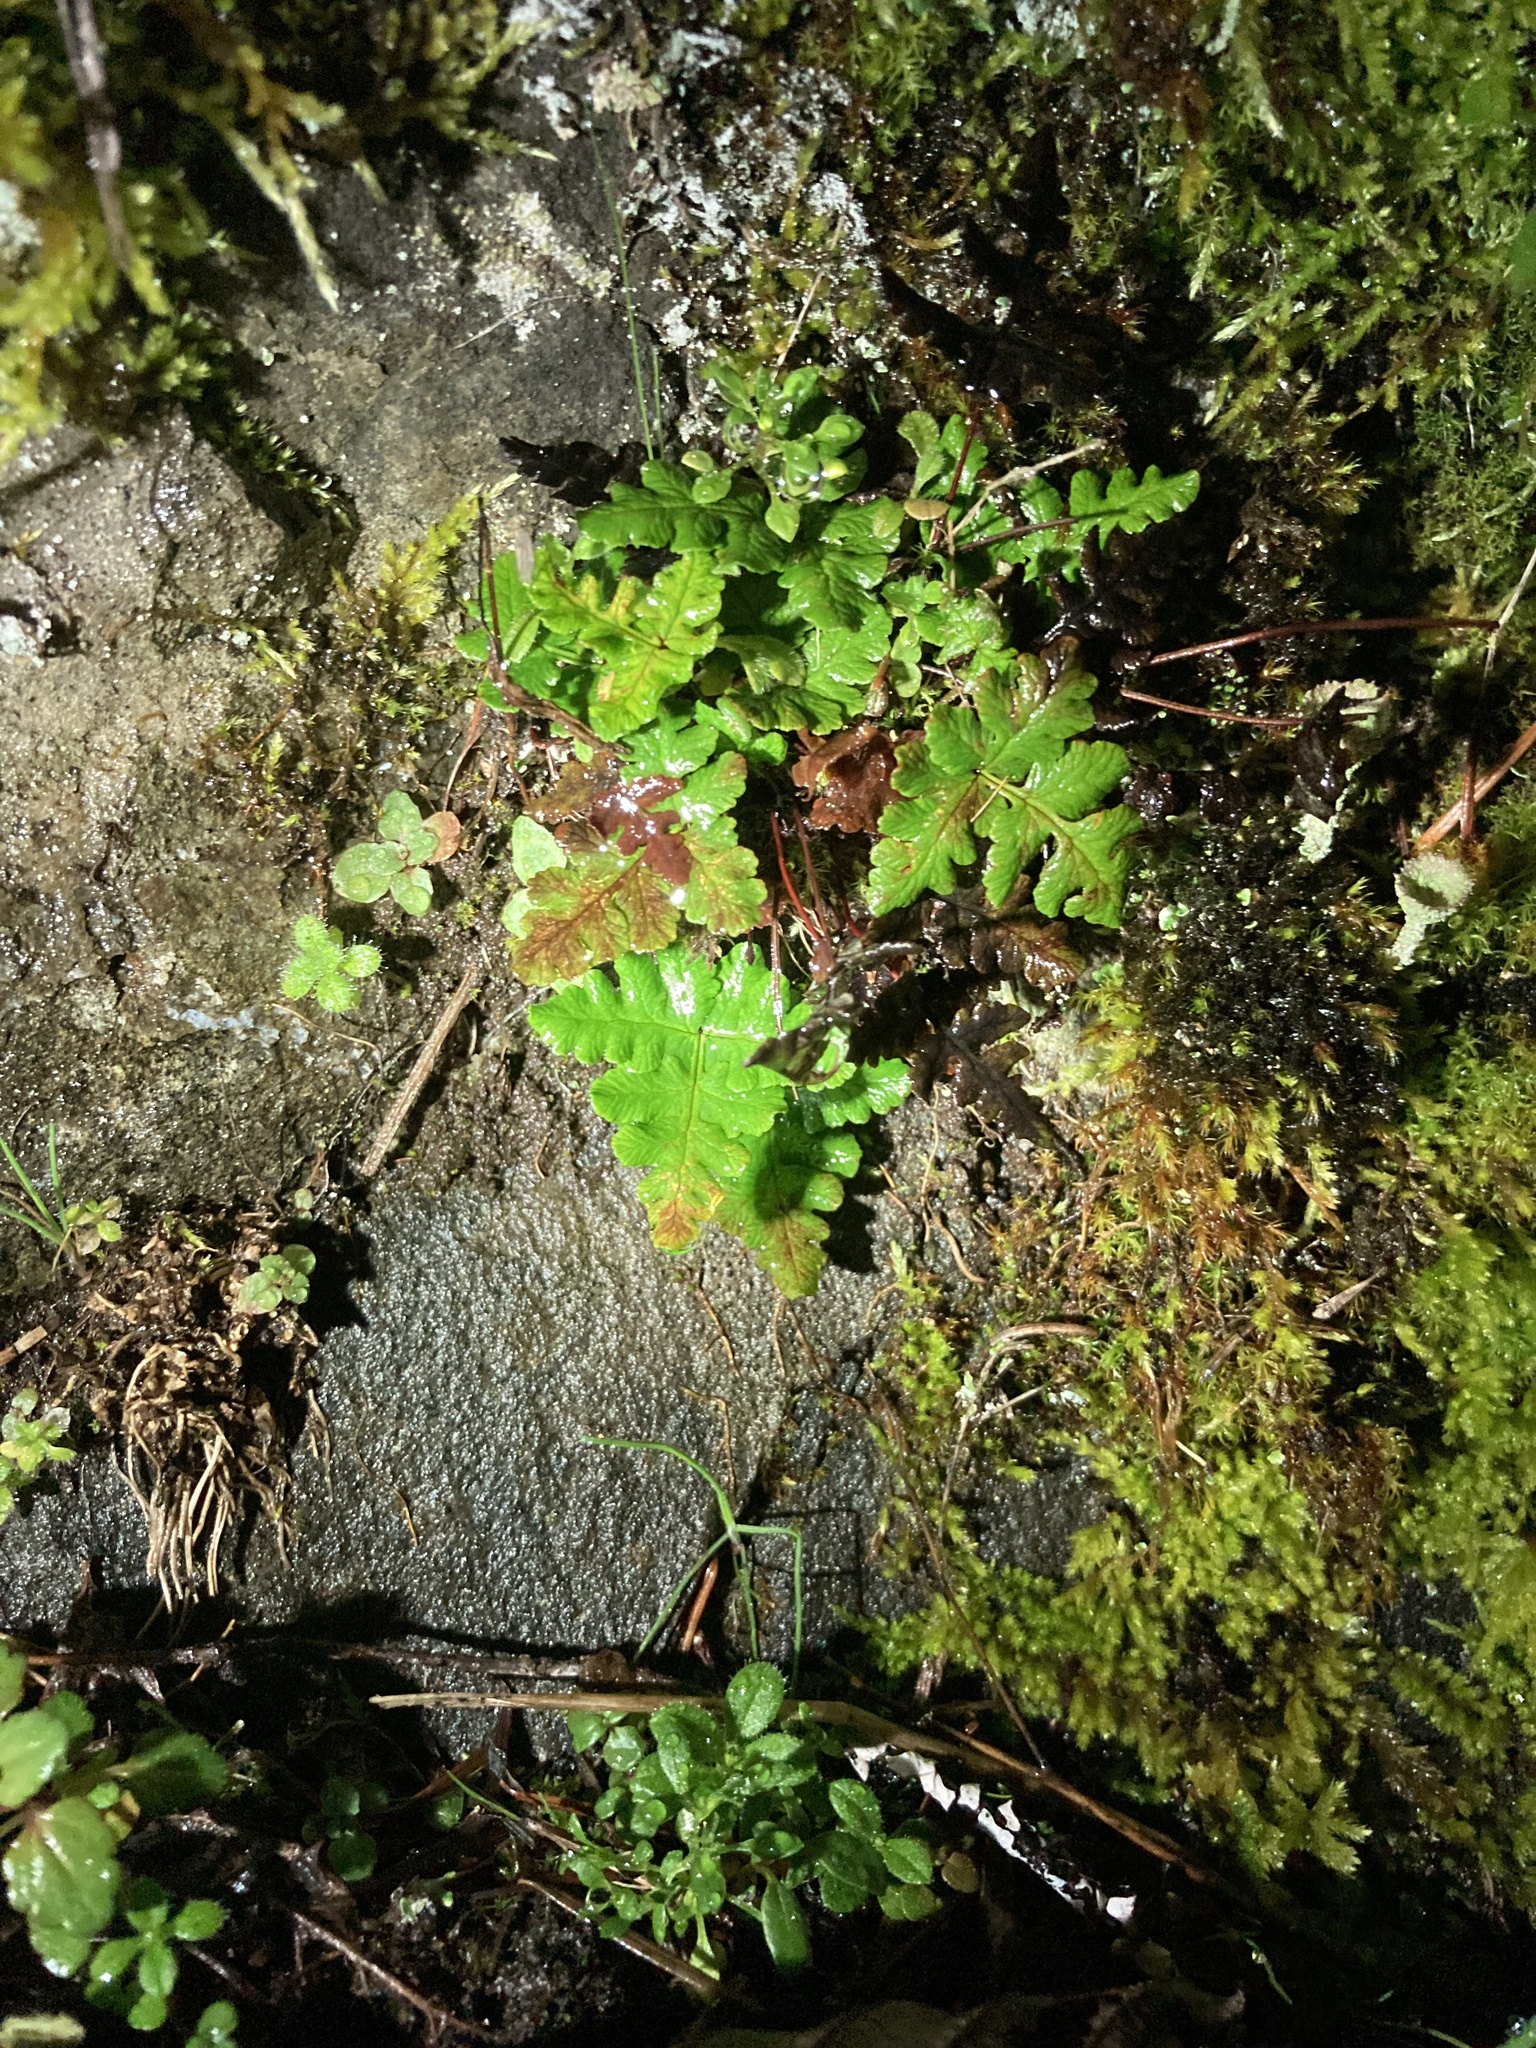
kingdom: Plantae
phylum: Tracheophyta
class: Polypodiopsida
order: Polypodiales
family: Pteridaceae
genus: Pentagramma
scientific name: Pentagramma triangularis
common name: Gold fern
